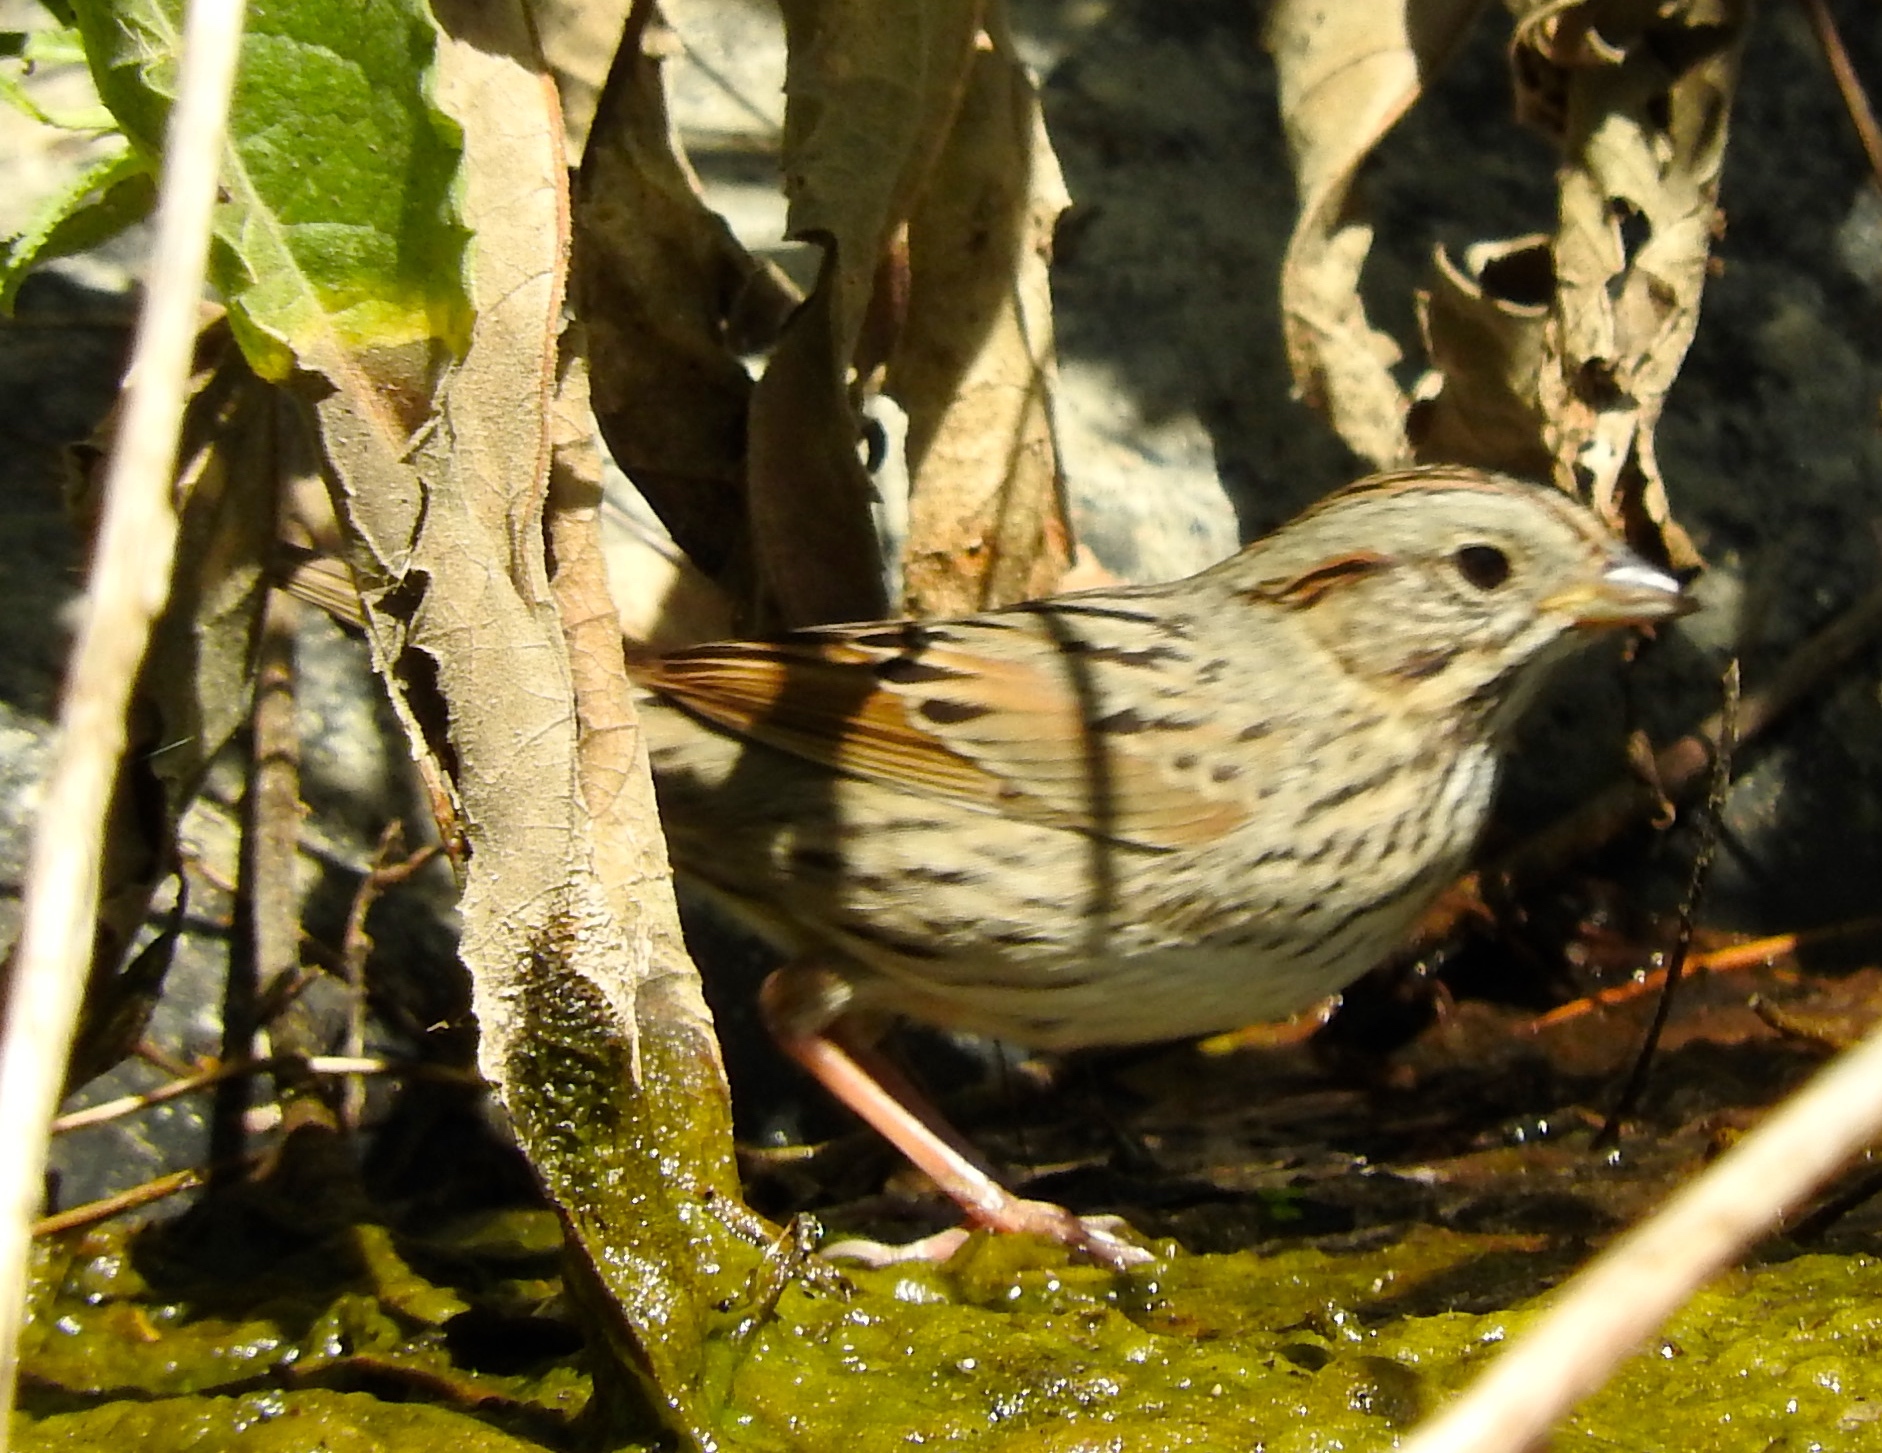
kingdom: Animalia
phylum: Chordata
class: Aves
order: Passeriformes
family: Passerellidae
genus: Melospiza
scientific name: Melospiza lincolnii
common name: Lincoln's sparrow
